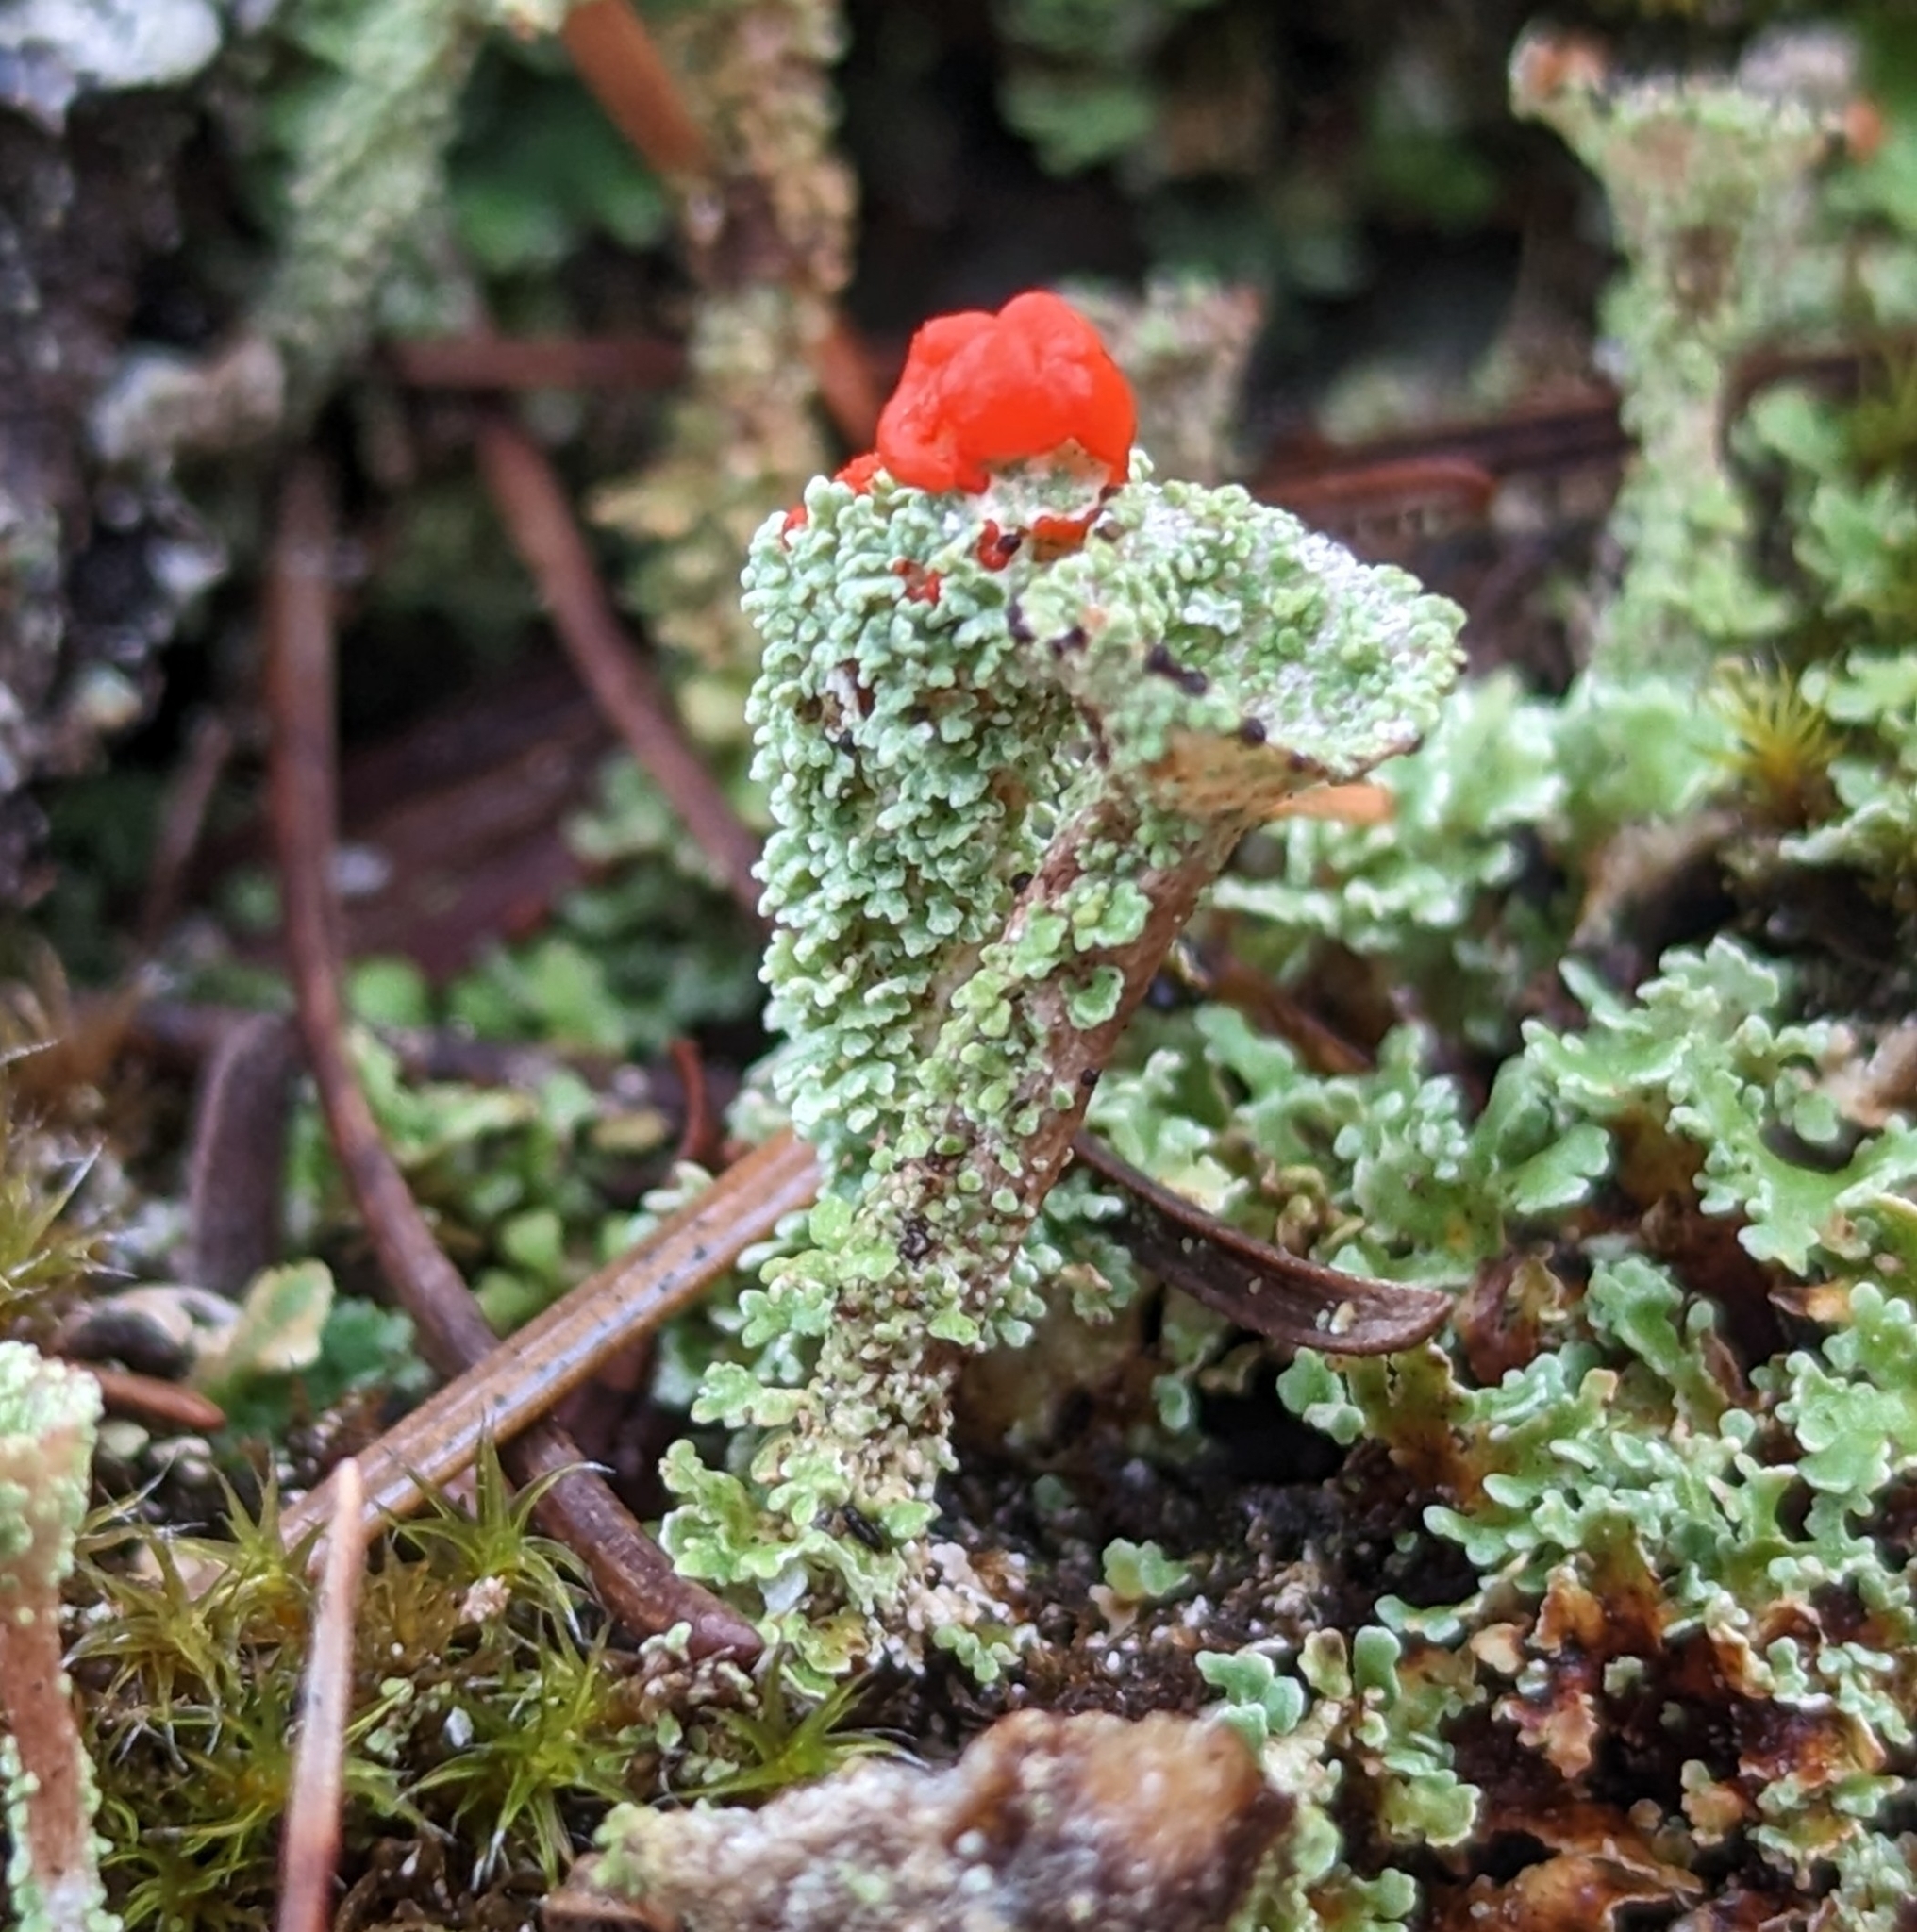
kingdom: Fungi
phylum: Ascomycota
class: Lecanoromycetes
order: Lecanorales
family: Cladoniaceae
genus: Cladonia
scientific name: Cladonia bellidiflora
